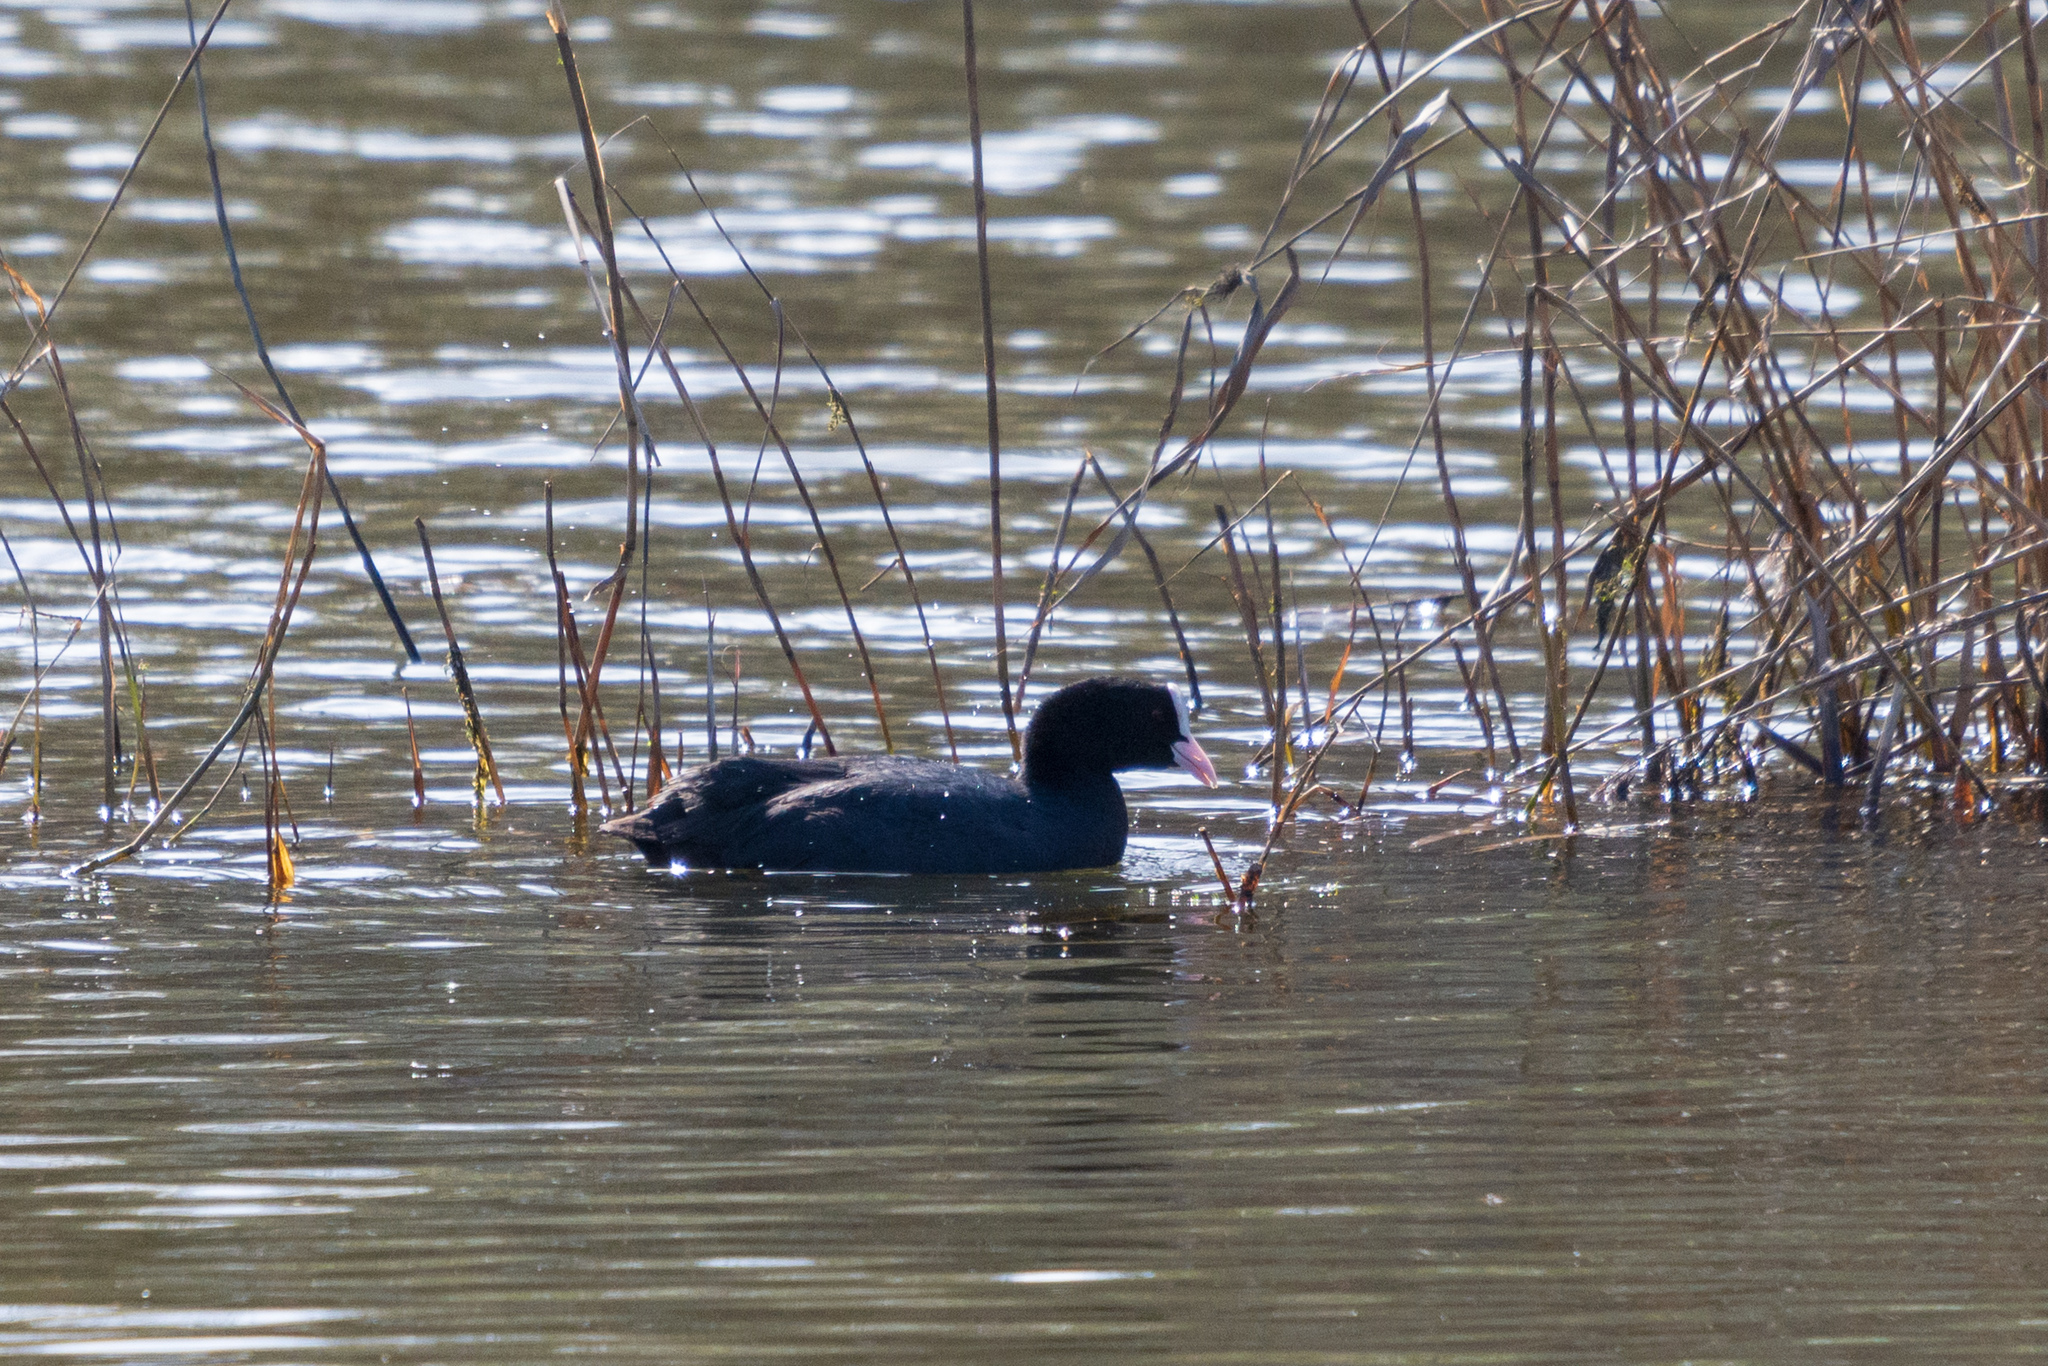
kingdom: Animalia
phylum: Chordata
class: Aves
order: Gruiformes
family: Rallidae
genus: Fulica
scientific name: Fulica atra
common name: Eurasian coot
